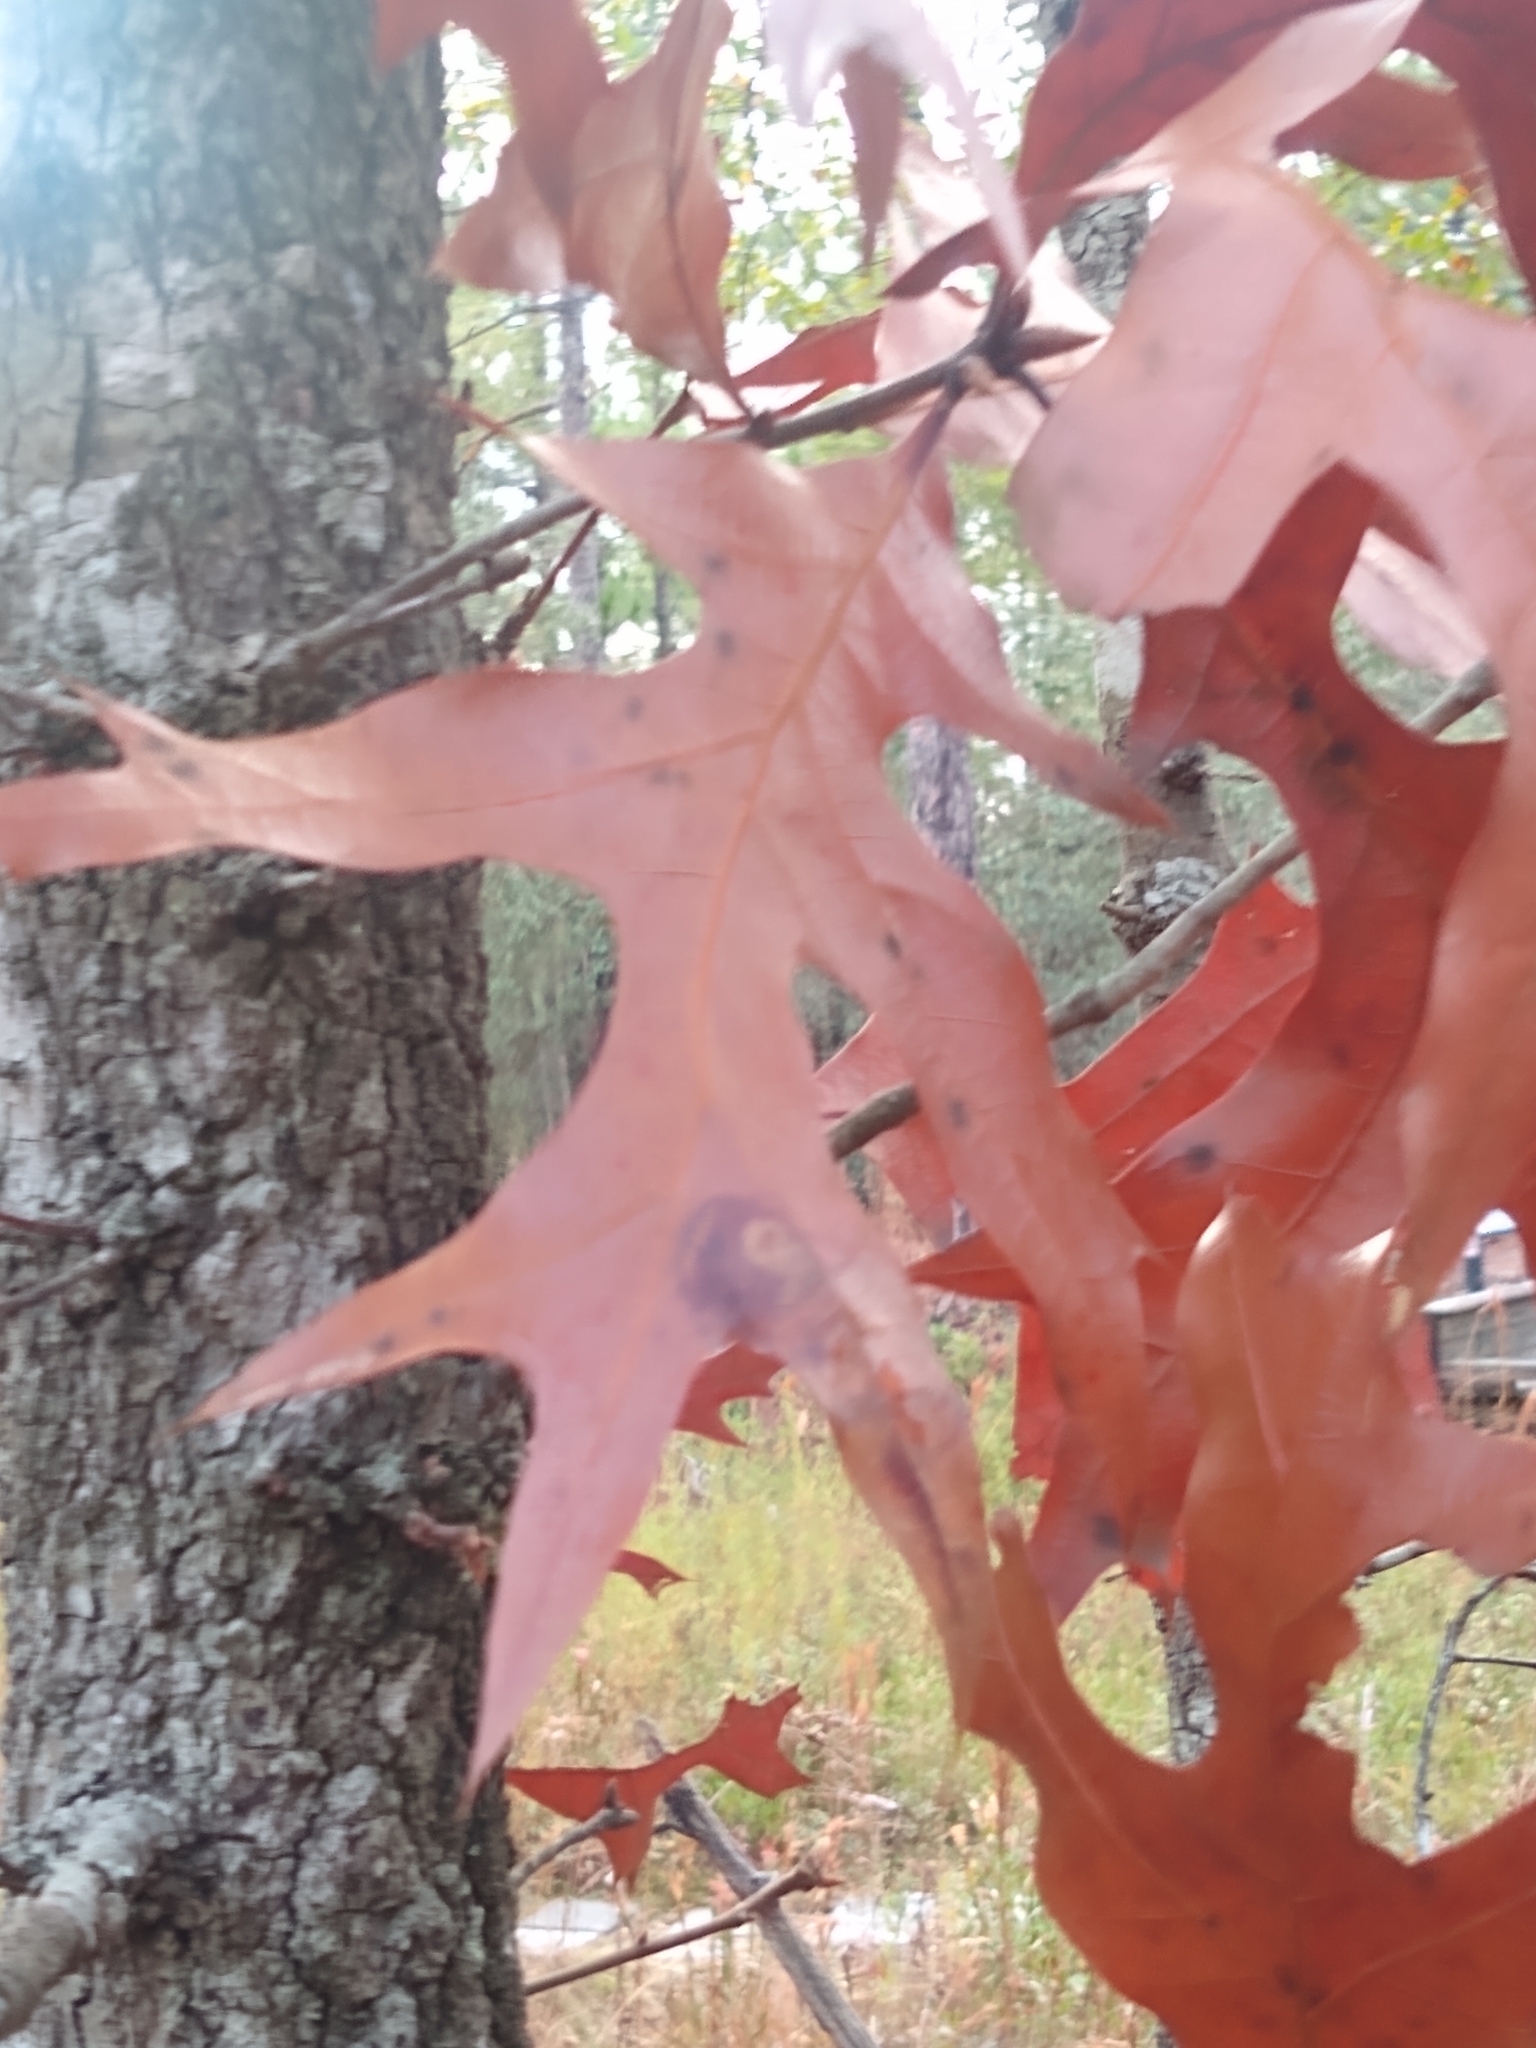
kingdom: Plantae
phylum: Tracheophyta
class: Magnoliopsida
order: Fagales
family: Fagaceae
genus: Quercus
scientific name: Quercus laevis
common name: Turkey oak
